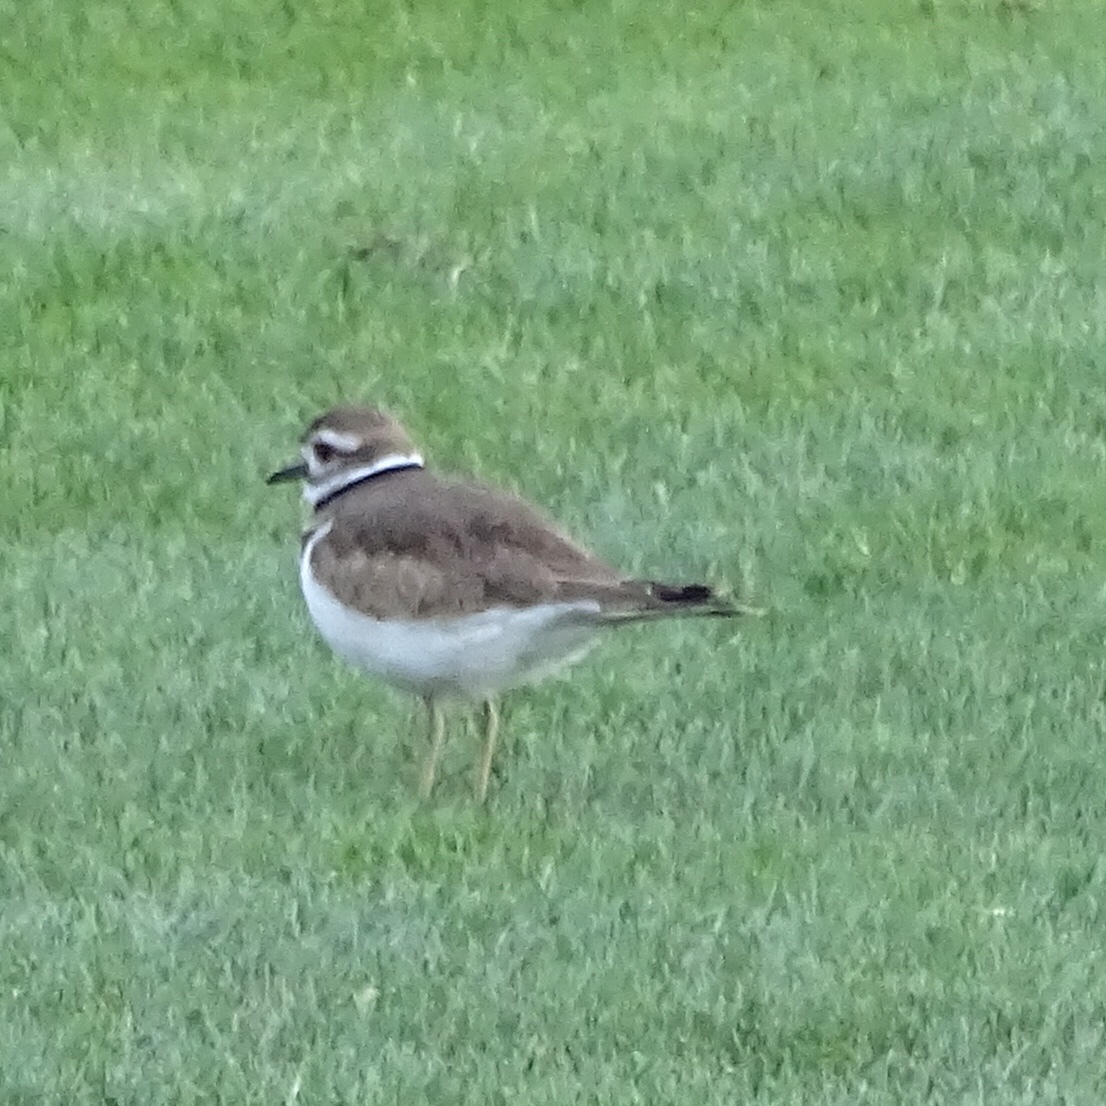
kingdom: Animalia
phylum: Chordata
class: Aves
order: Charadriiformes
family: Charadriidae
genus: Charadrius
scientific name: Charadrius vociferus
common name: Killdeer
